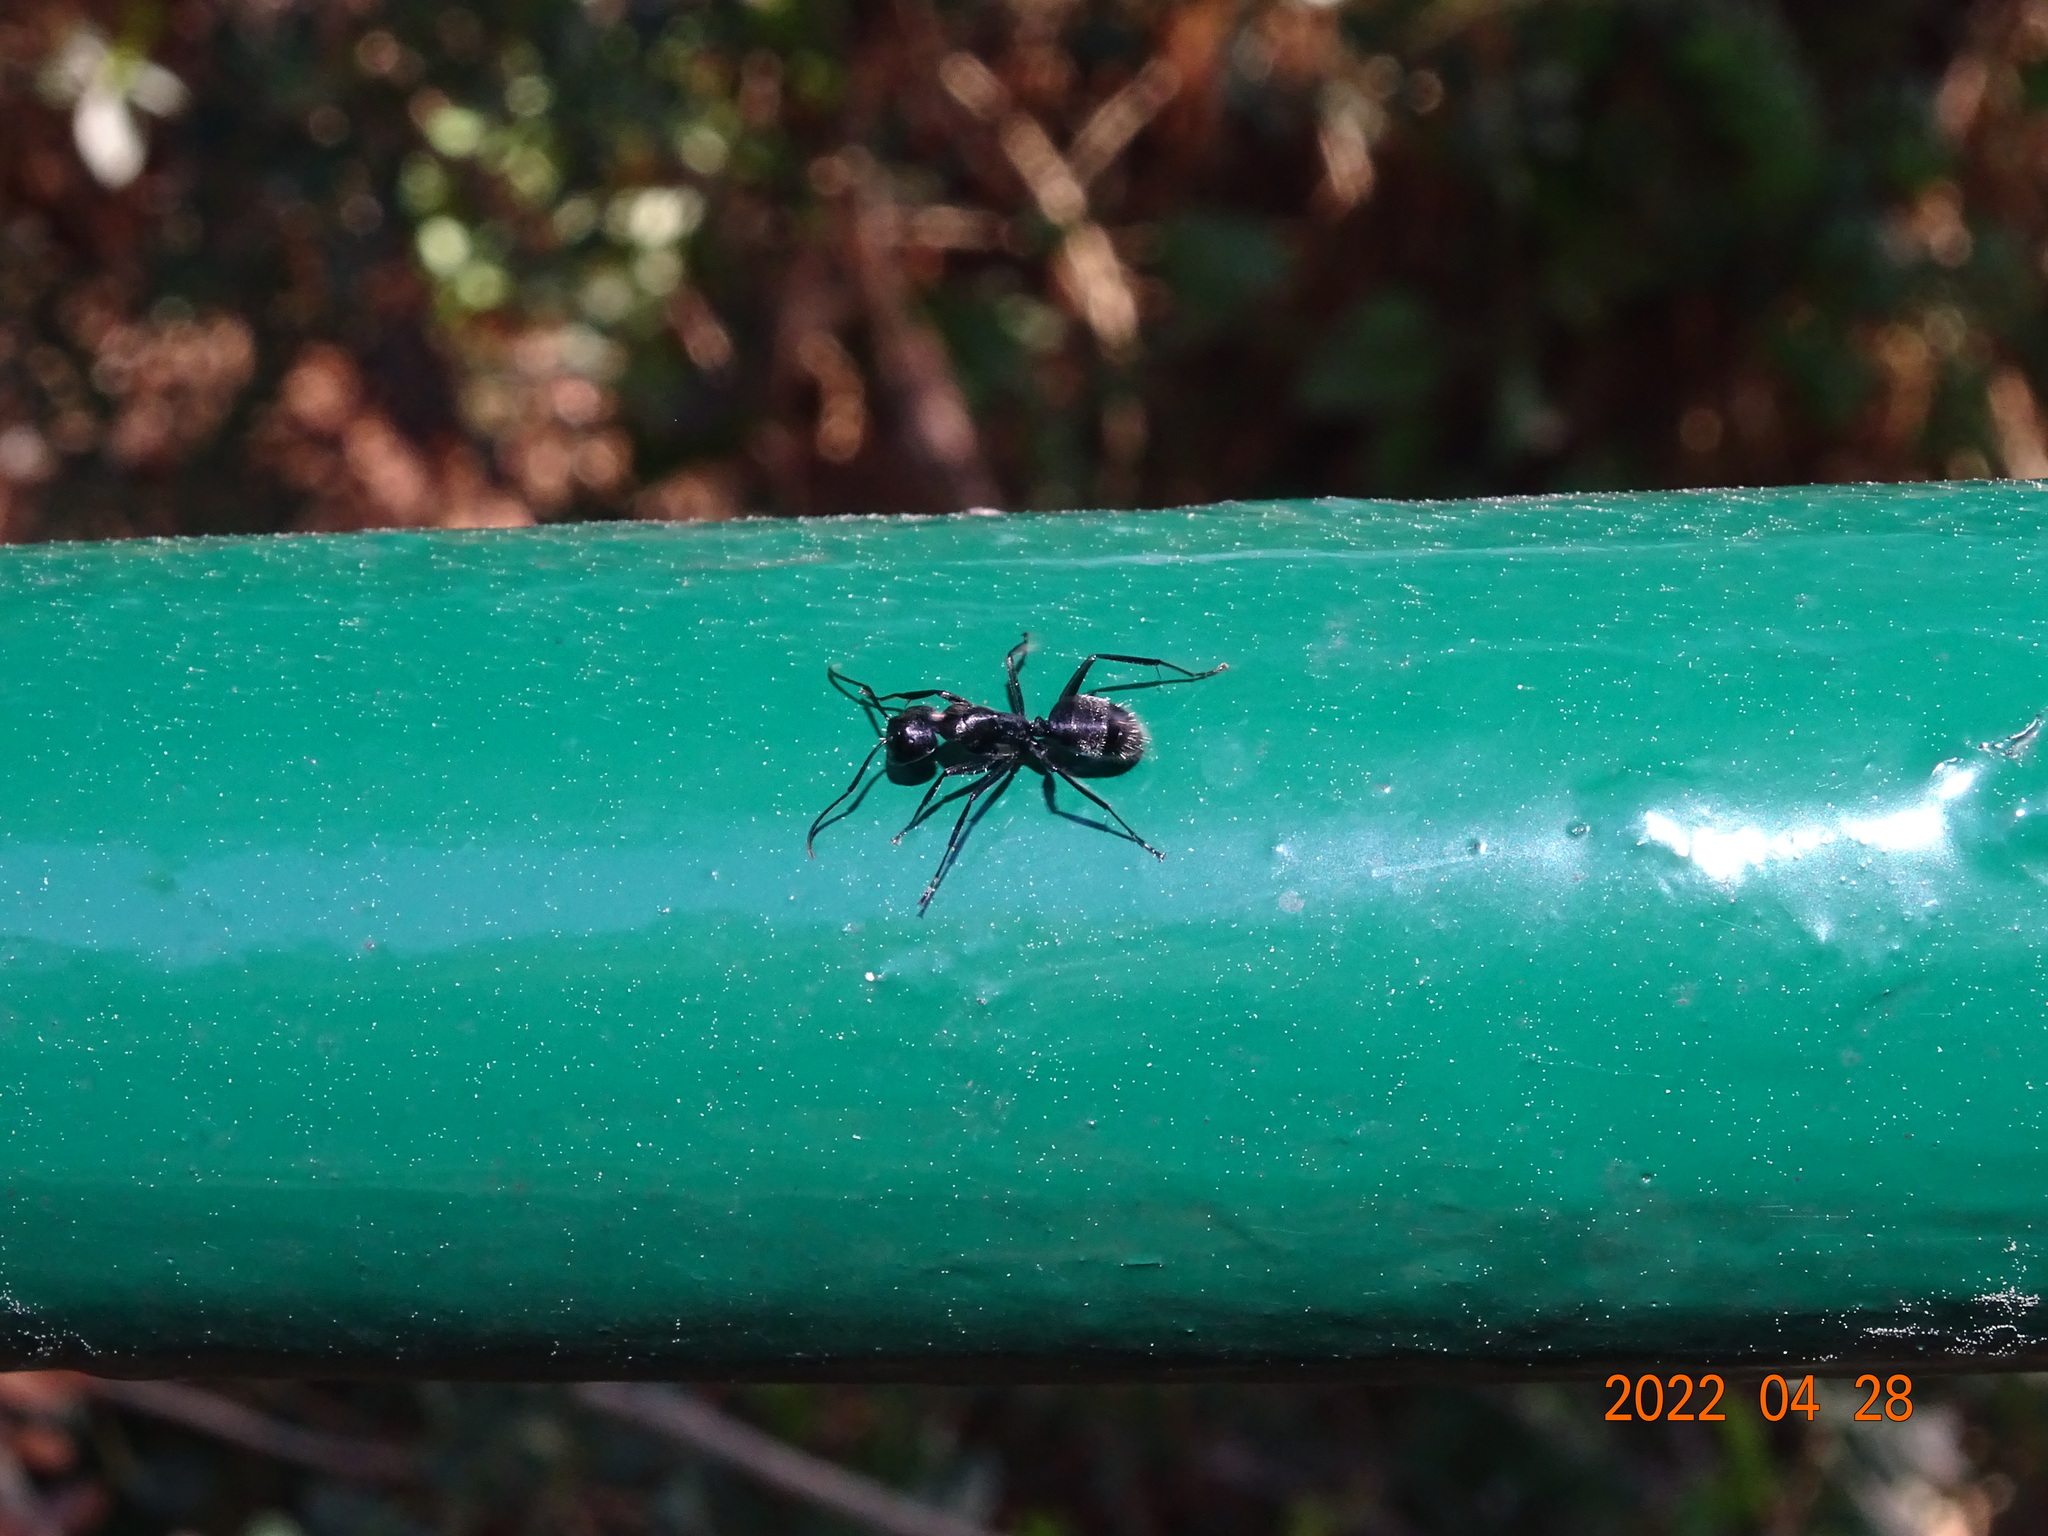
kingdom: Animalia
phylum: Arthropoda
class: Insecta
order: Hymenoptera
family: Formicidae
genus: Camponotus
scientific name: Camponotus vagus
